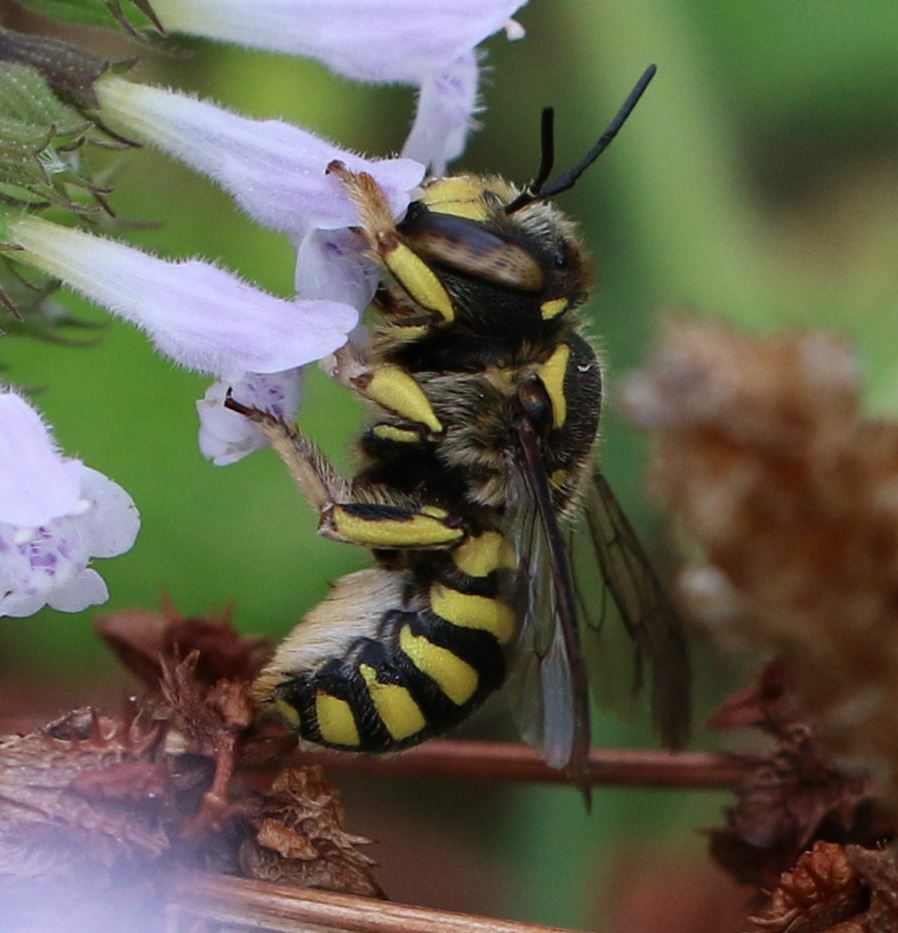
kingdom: Animalia
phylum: Arthropoda
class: Insecta
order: Hymenoptera
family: Megachilidae
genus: Anthidium
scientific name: Anthidium florentinum
